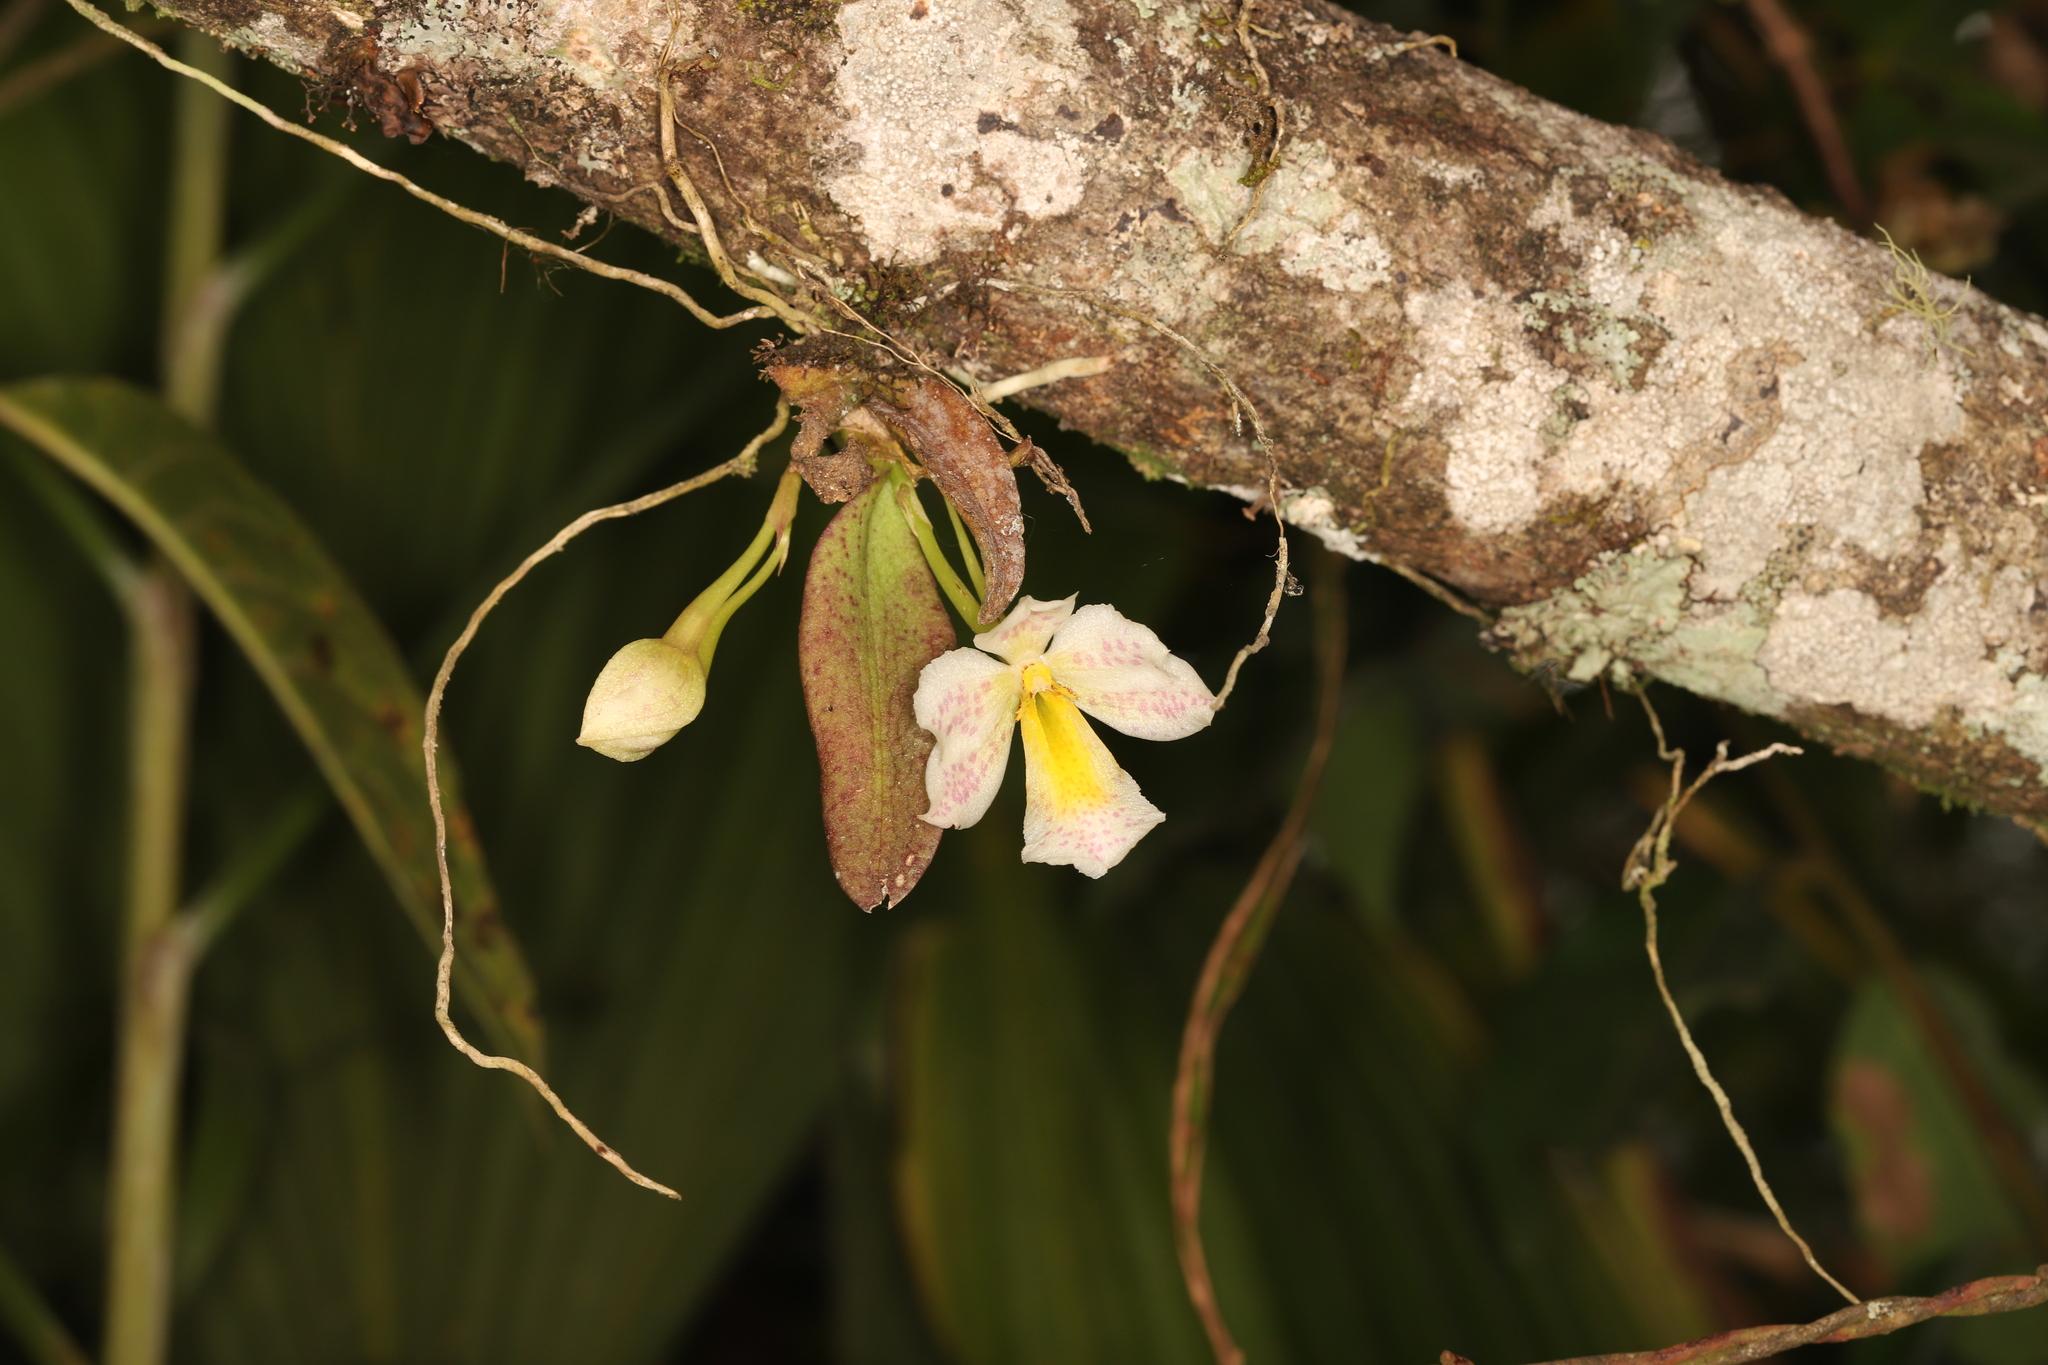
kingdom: Plantae
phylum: Tracheophyta
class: Liliopsida
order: Asparagales
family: Orchidaceae
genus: Trichocentrum
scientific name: Trichocentrum pulchrum
